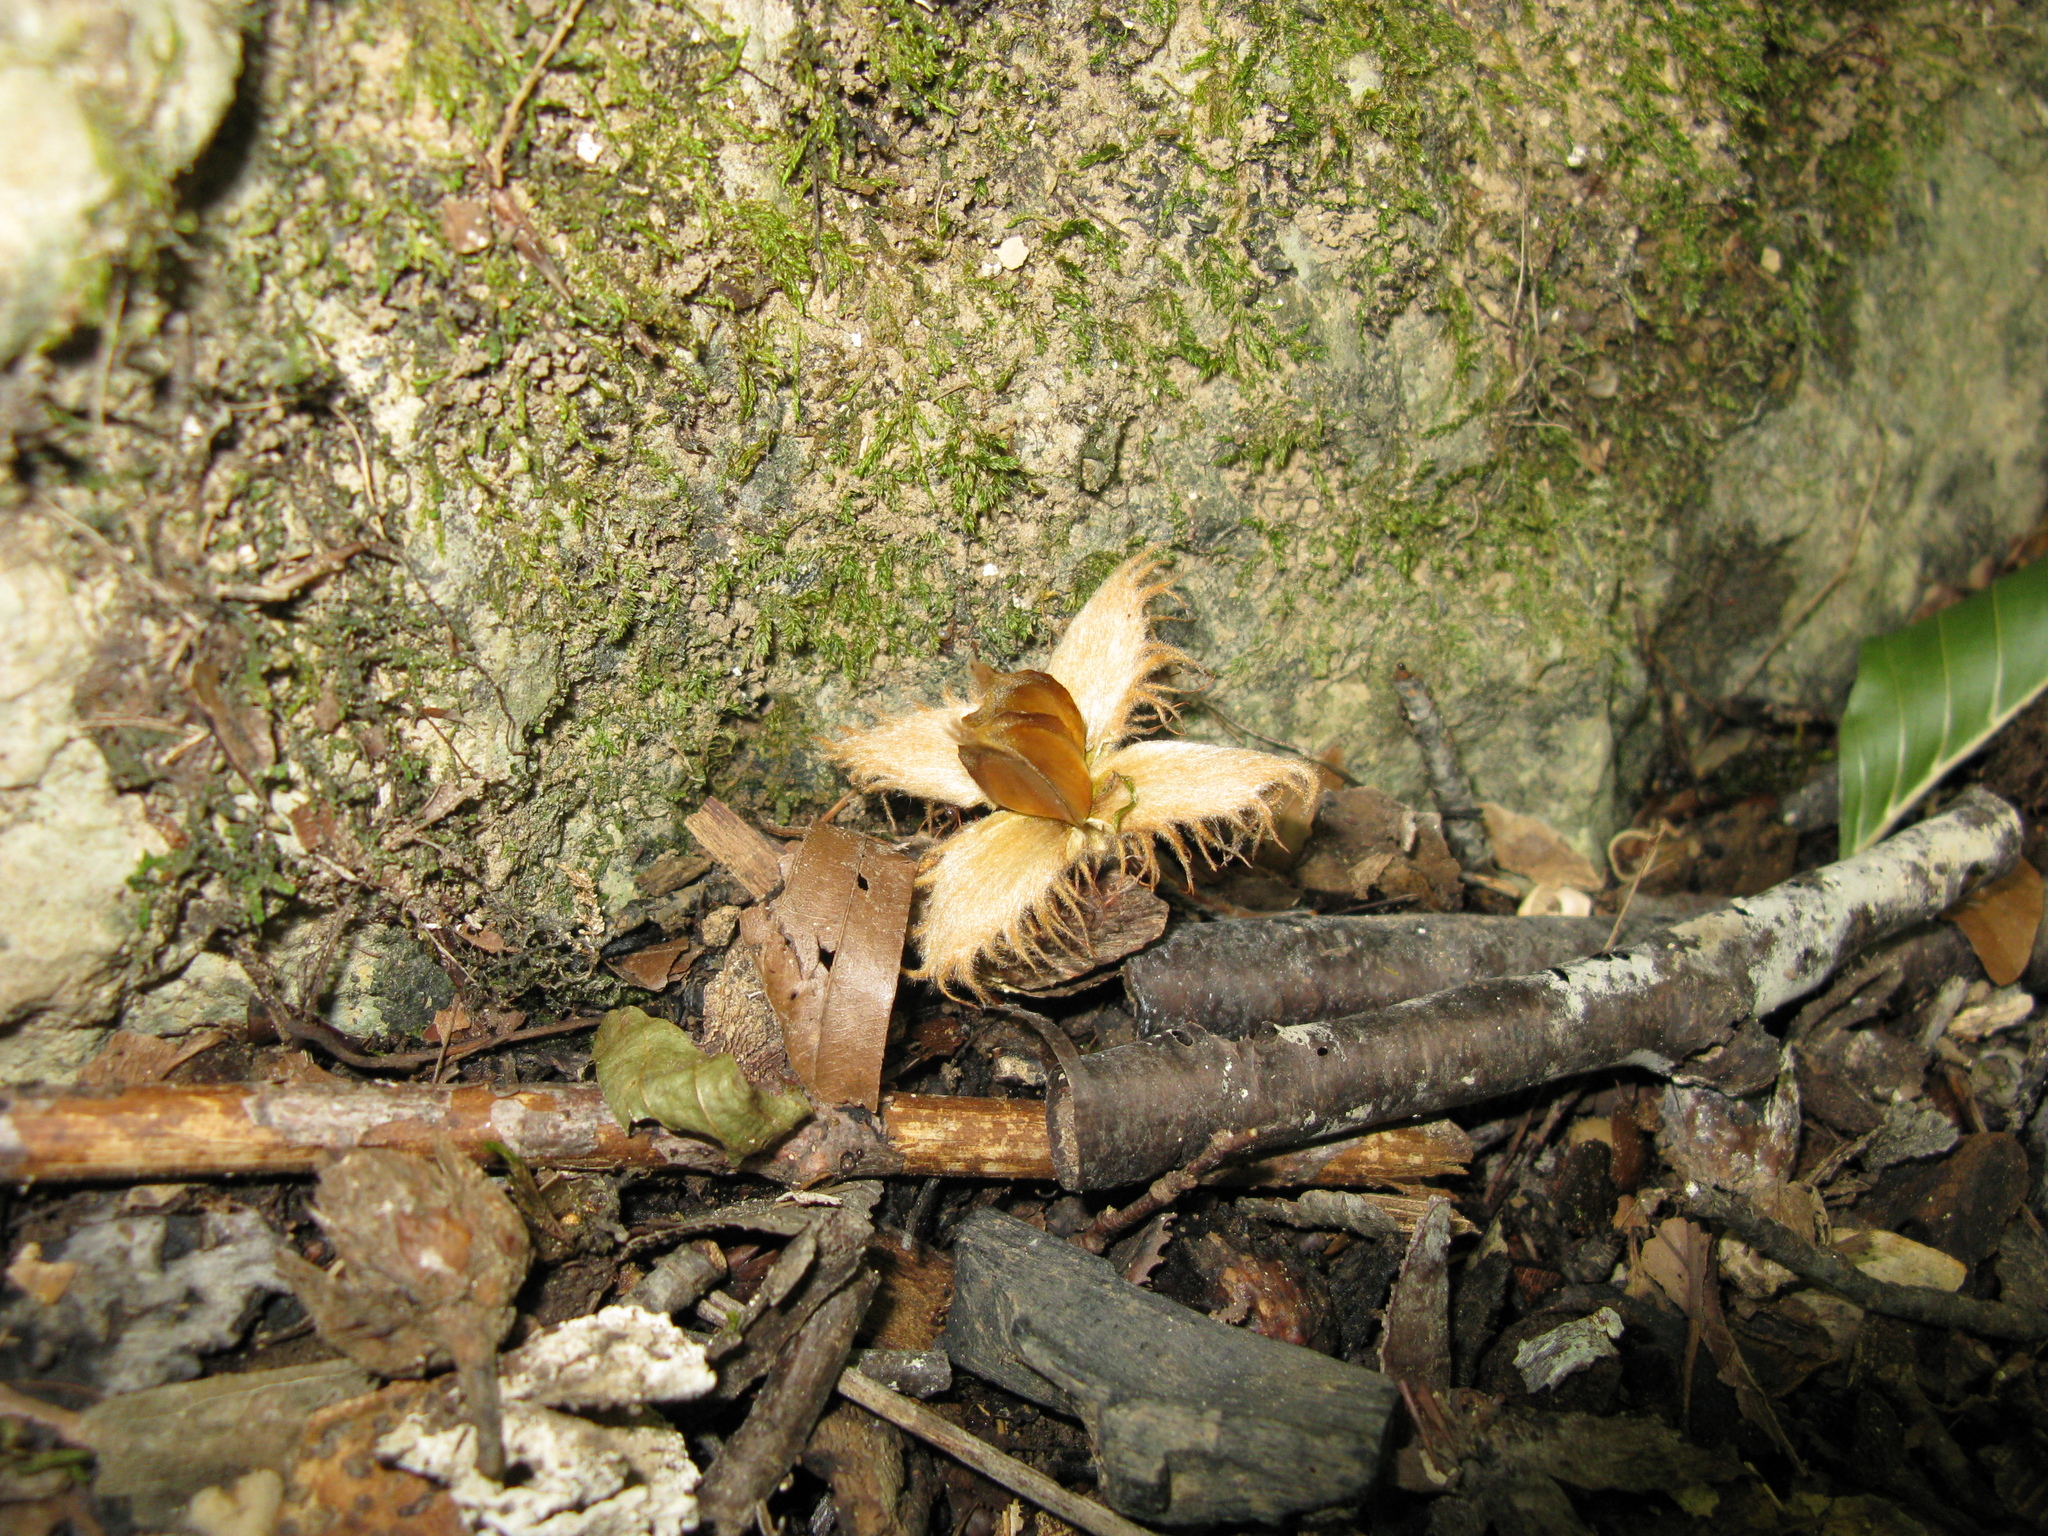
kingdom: Plantae
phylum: Tracheophyta
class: Magnoliopsida
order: Fagales
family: Fagaceae
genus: Fagus
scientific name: Fagus taurica
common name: Crimean beech
